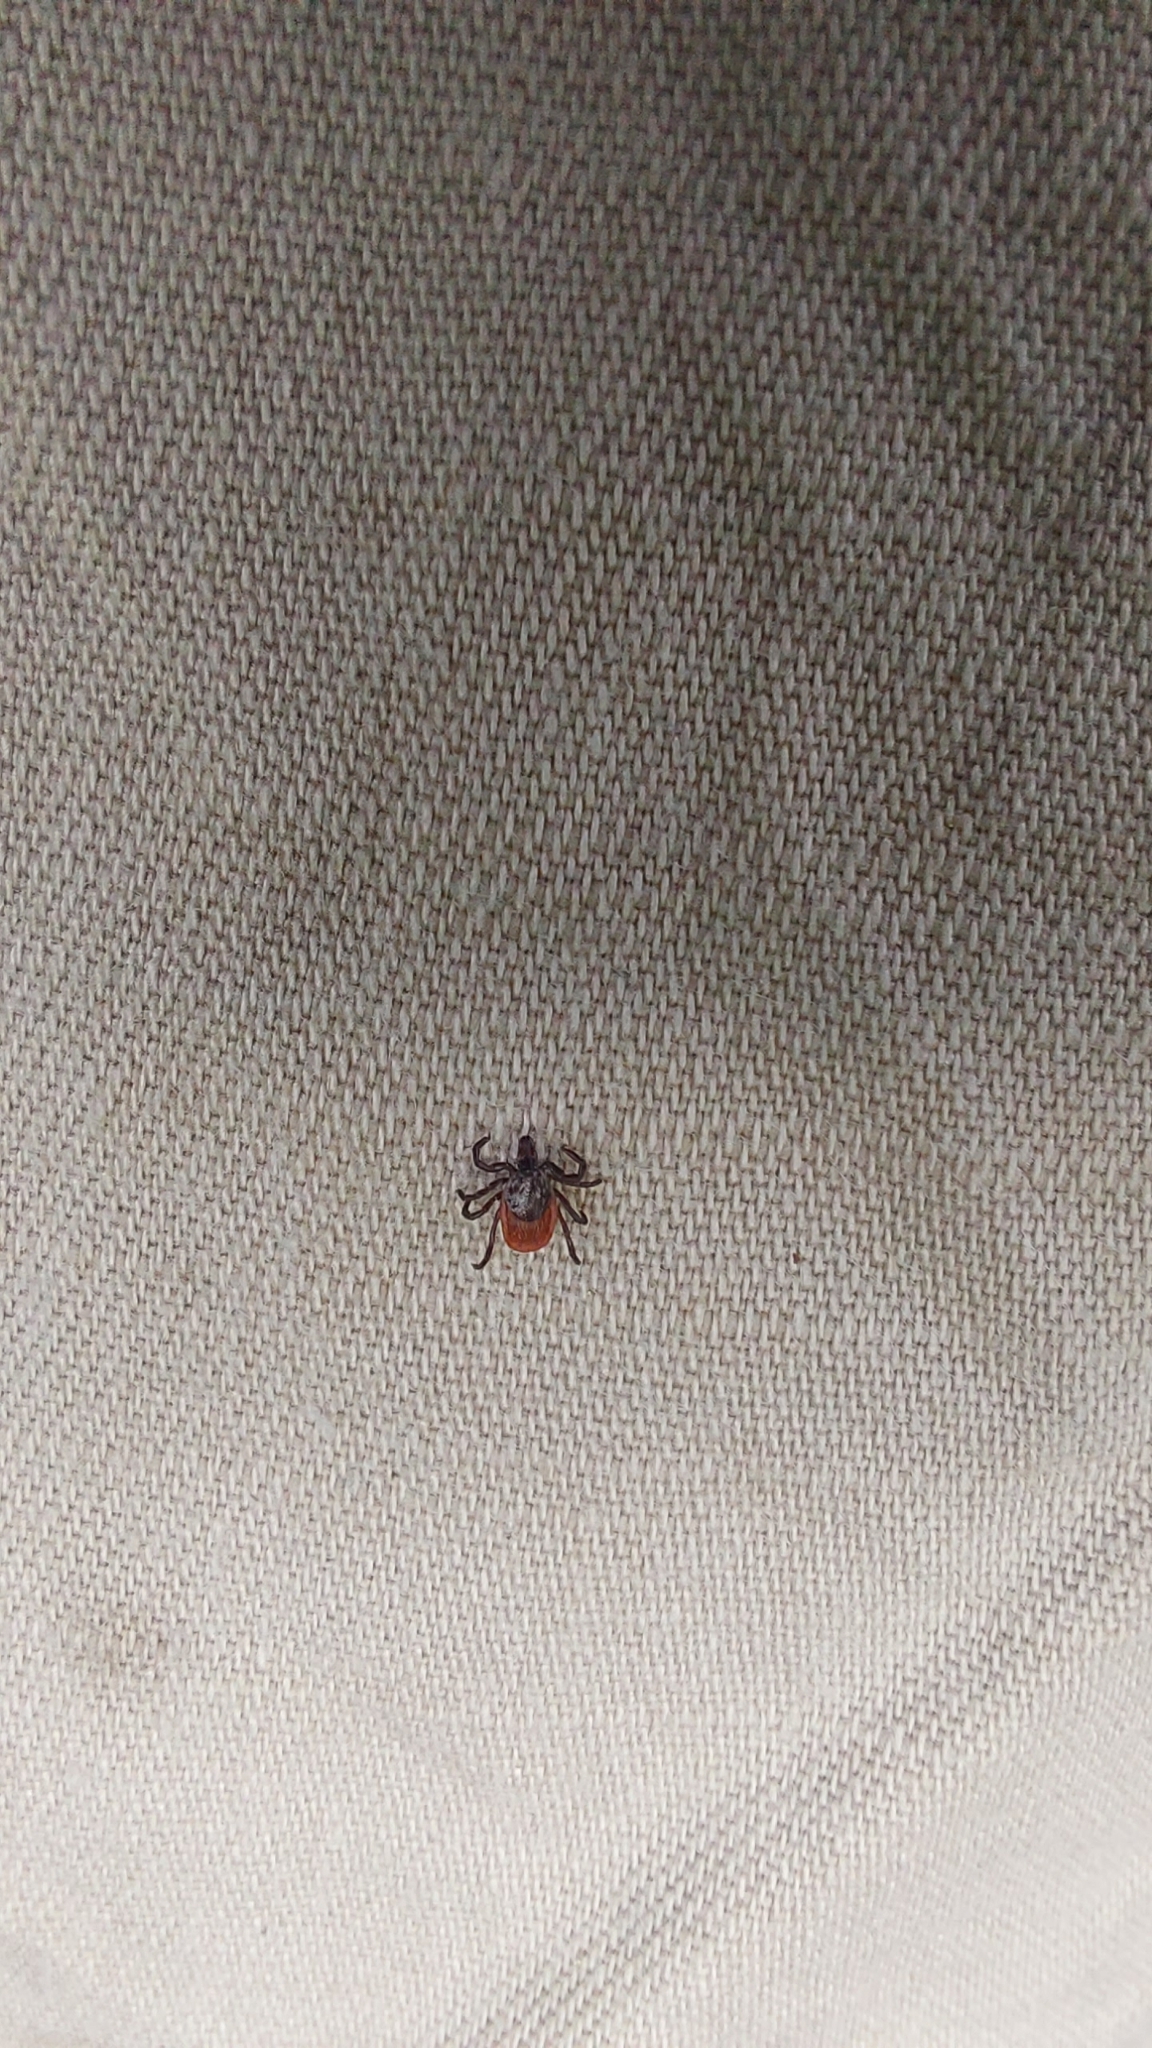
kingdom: Animalia
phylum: Arthropoda
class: Arachnida
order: Ixodida
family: Ixodidae
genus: Ixodes
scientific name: Ixodes scapularis
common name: Black legged tick
